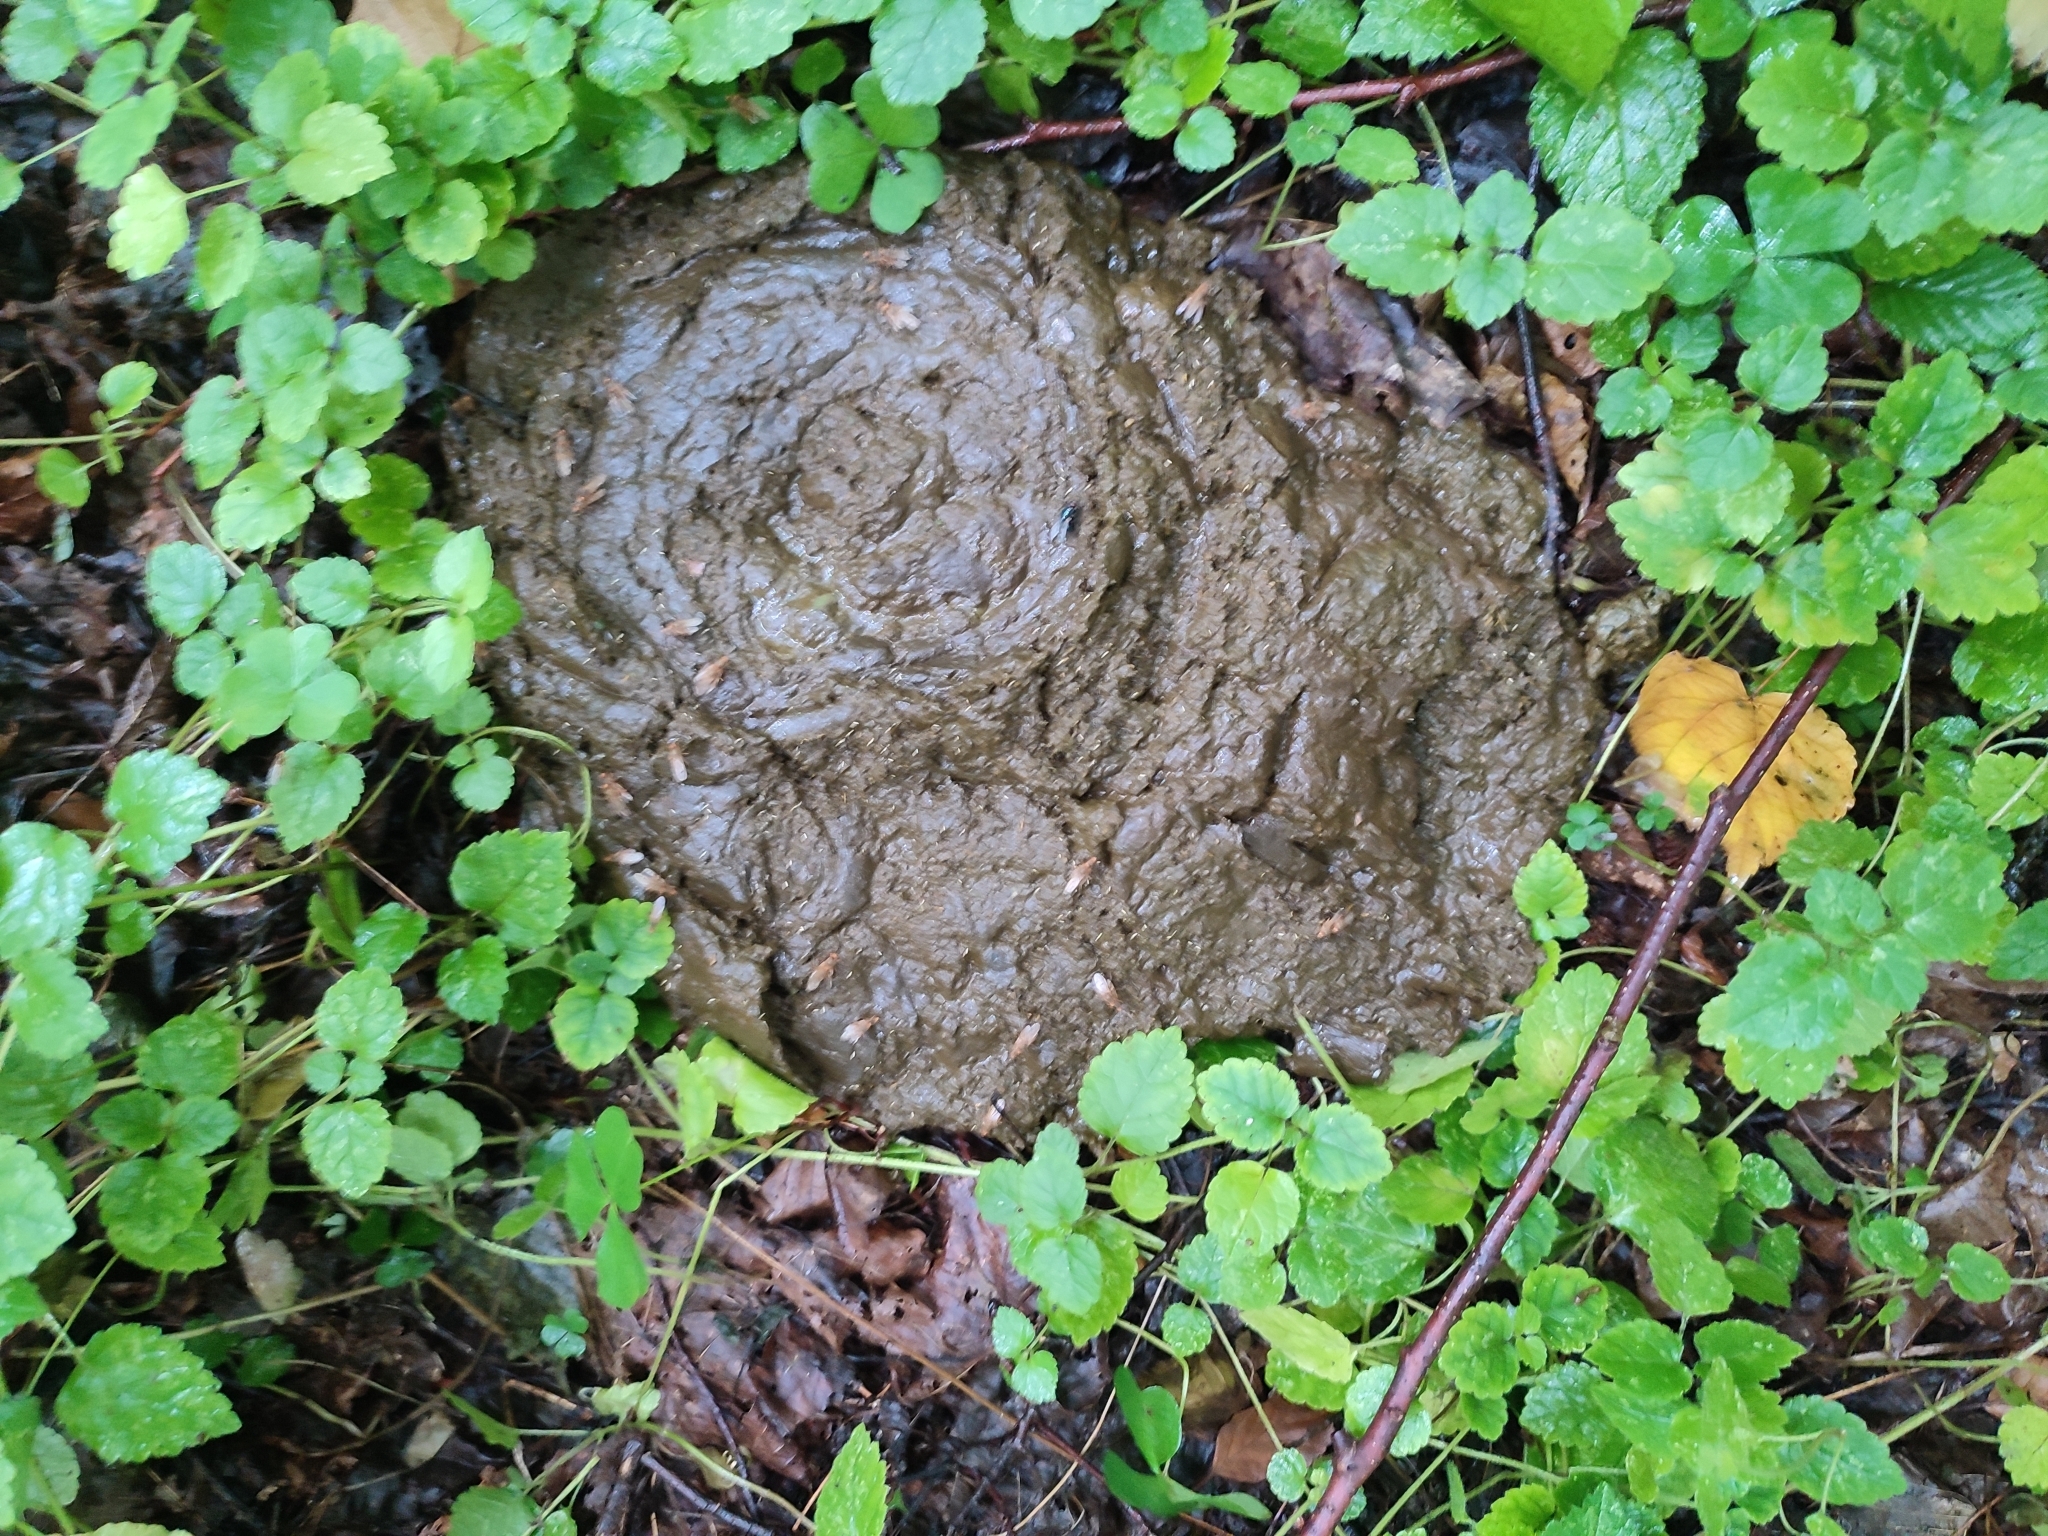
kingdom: Animalia
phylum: Chordata
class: Mammalia
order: Artiodactyla
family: Bovidae
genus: Bison
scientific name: Bison bonasus
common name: European bison
